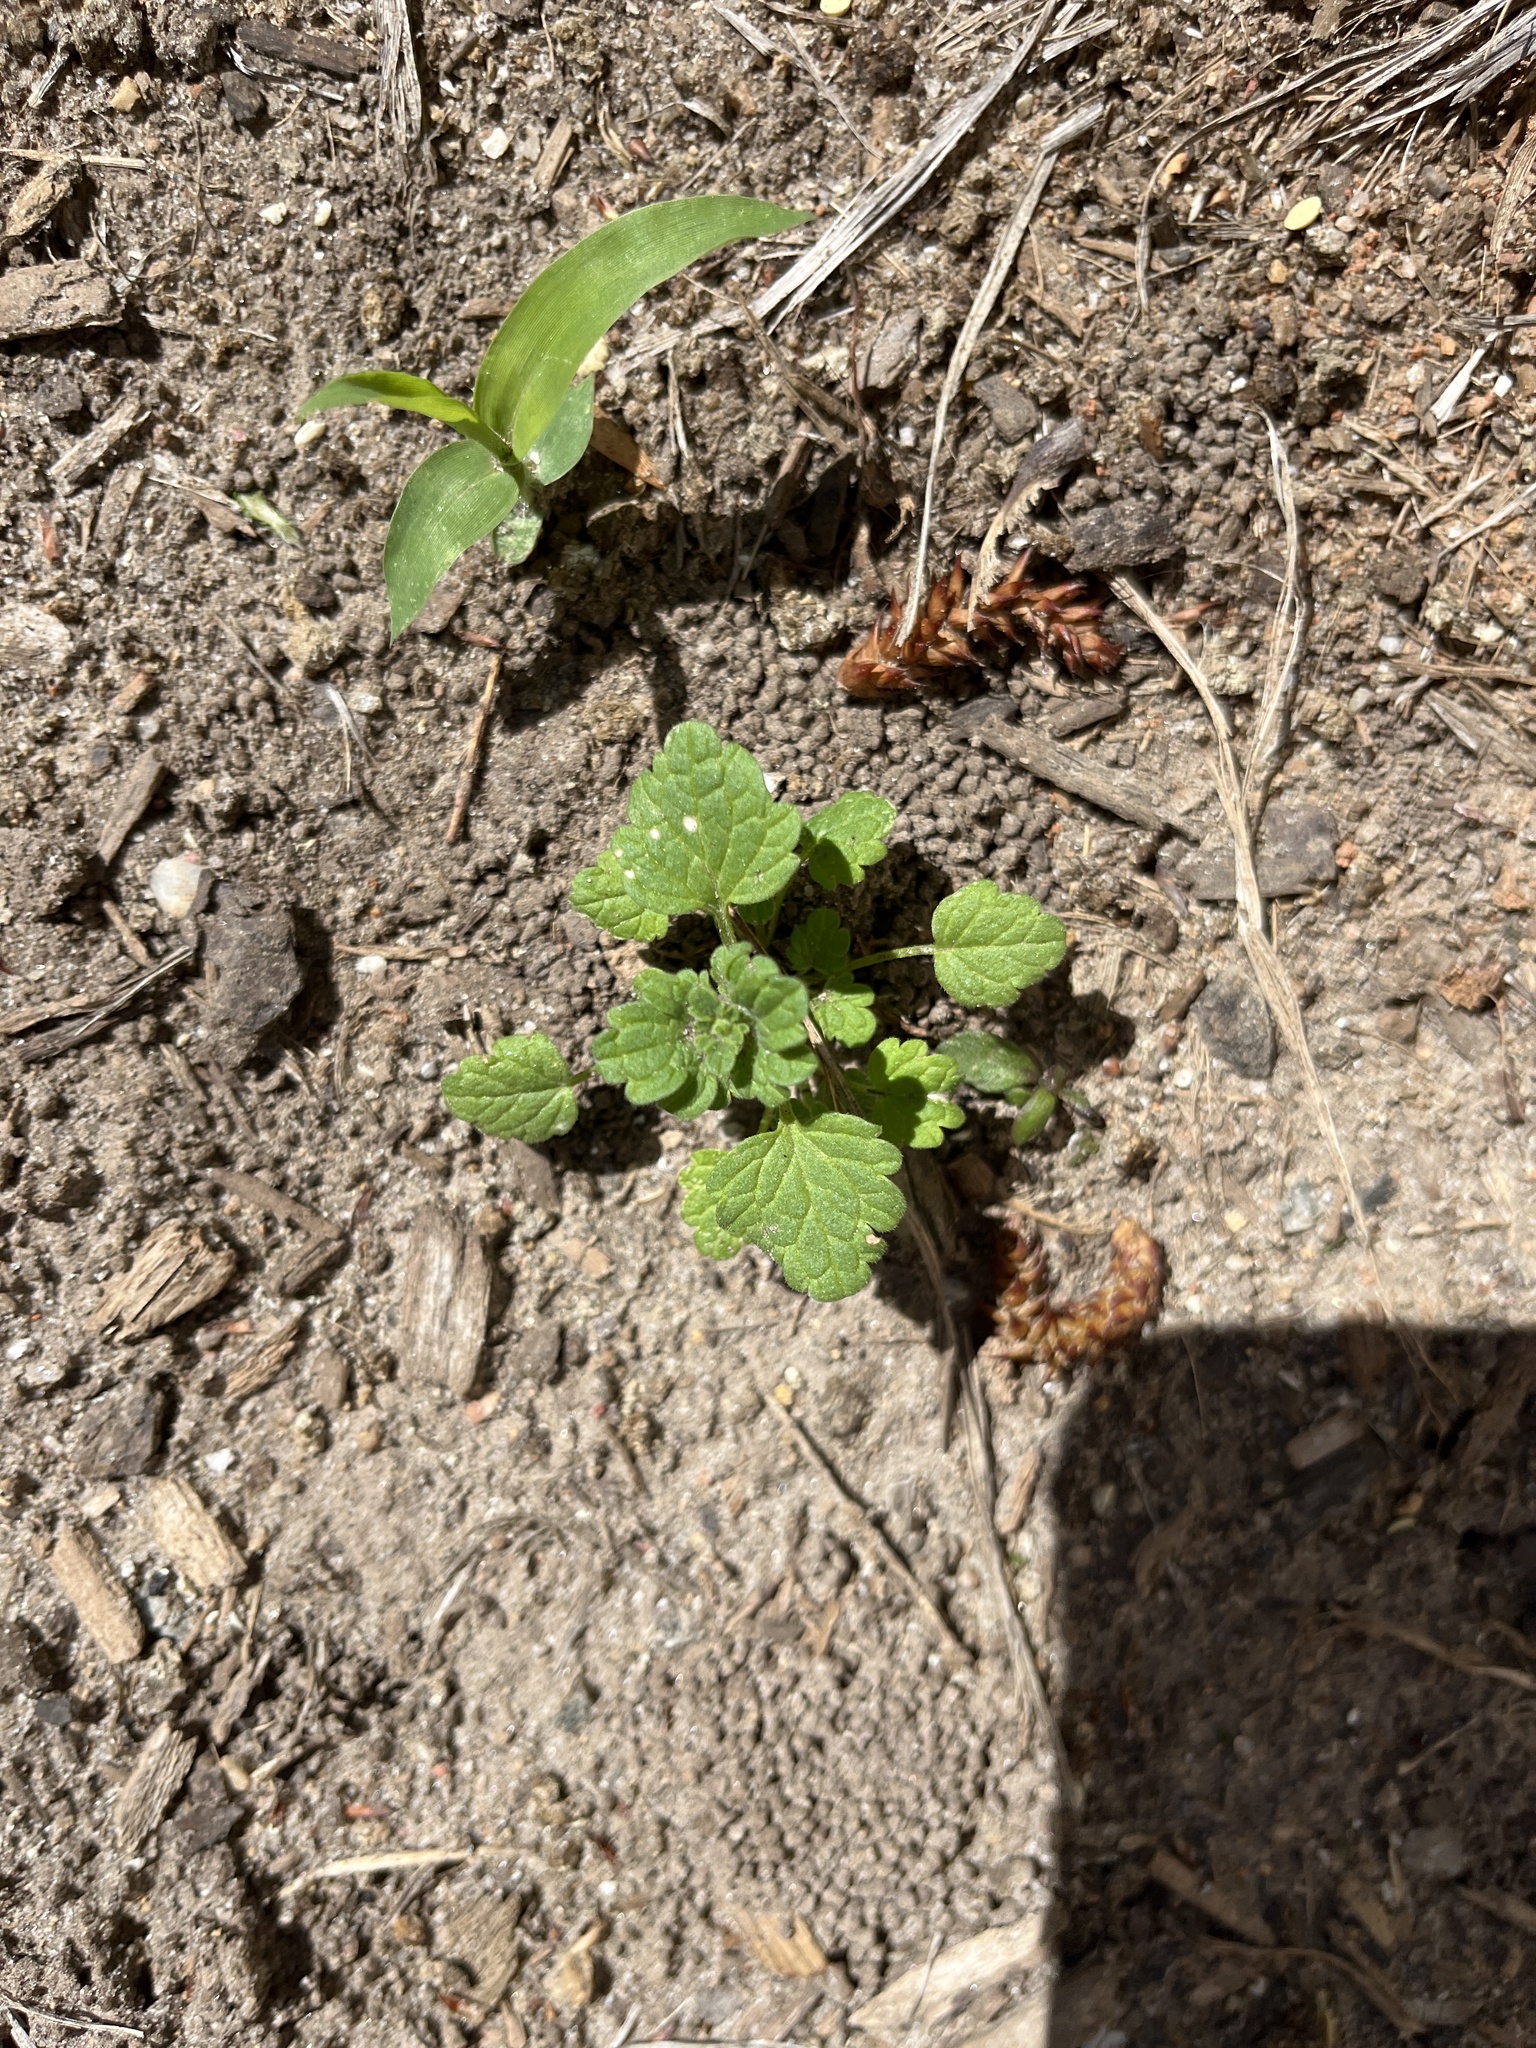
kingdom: Plantae
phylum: Tracheophyta
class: Magnoliopsida
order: Lamiales
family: Lamiaceae
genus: Lamium
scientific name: Lamium amplexicaule
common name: Henbit dead-nettle
